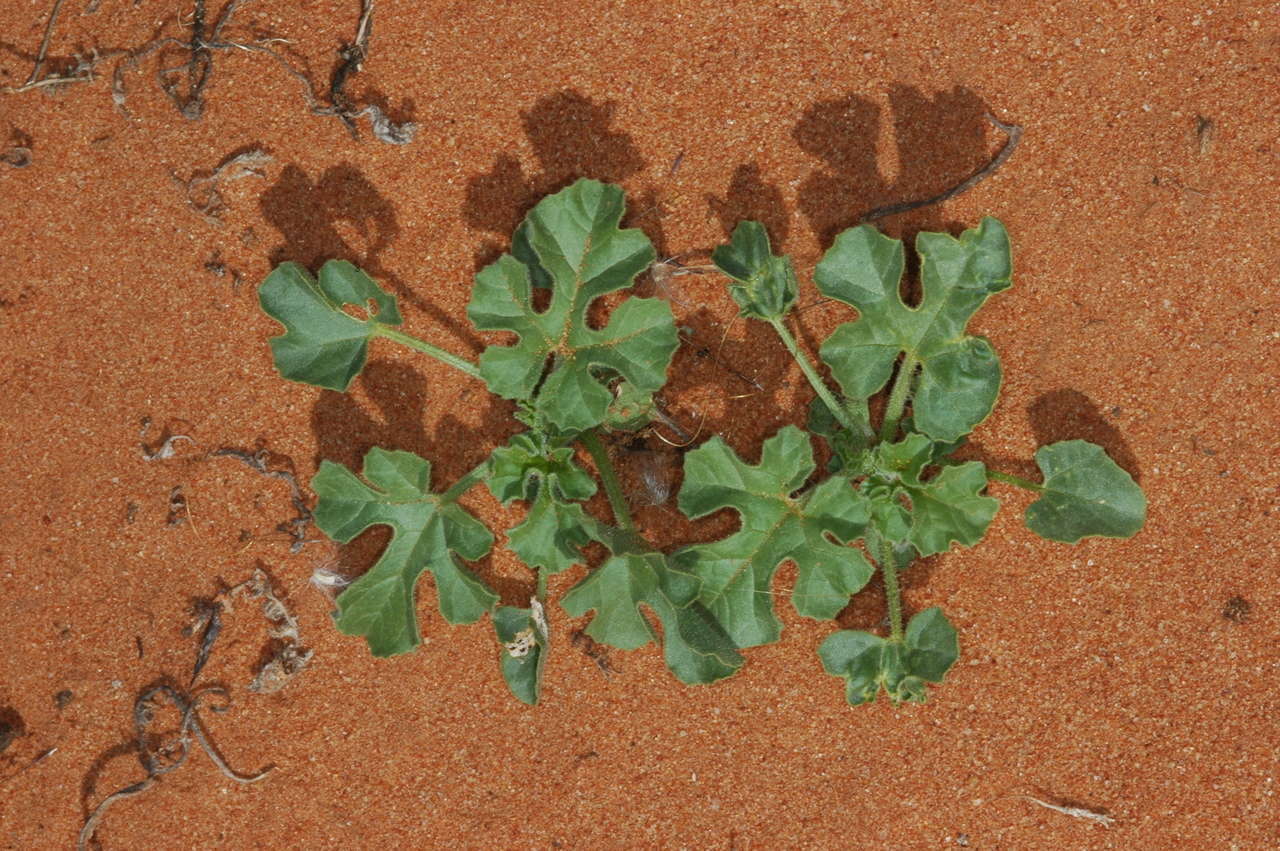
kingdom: Plantae
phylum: Tracheophyta
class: Magnoliopsida
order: Cucurbitales
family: Cucurbitaceae
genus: Cucumis
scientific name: Cucumis myriocarpus
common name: Gooseberry cucumber
